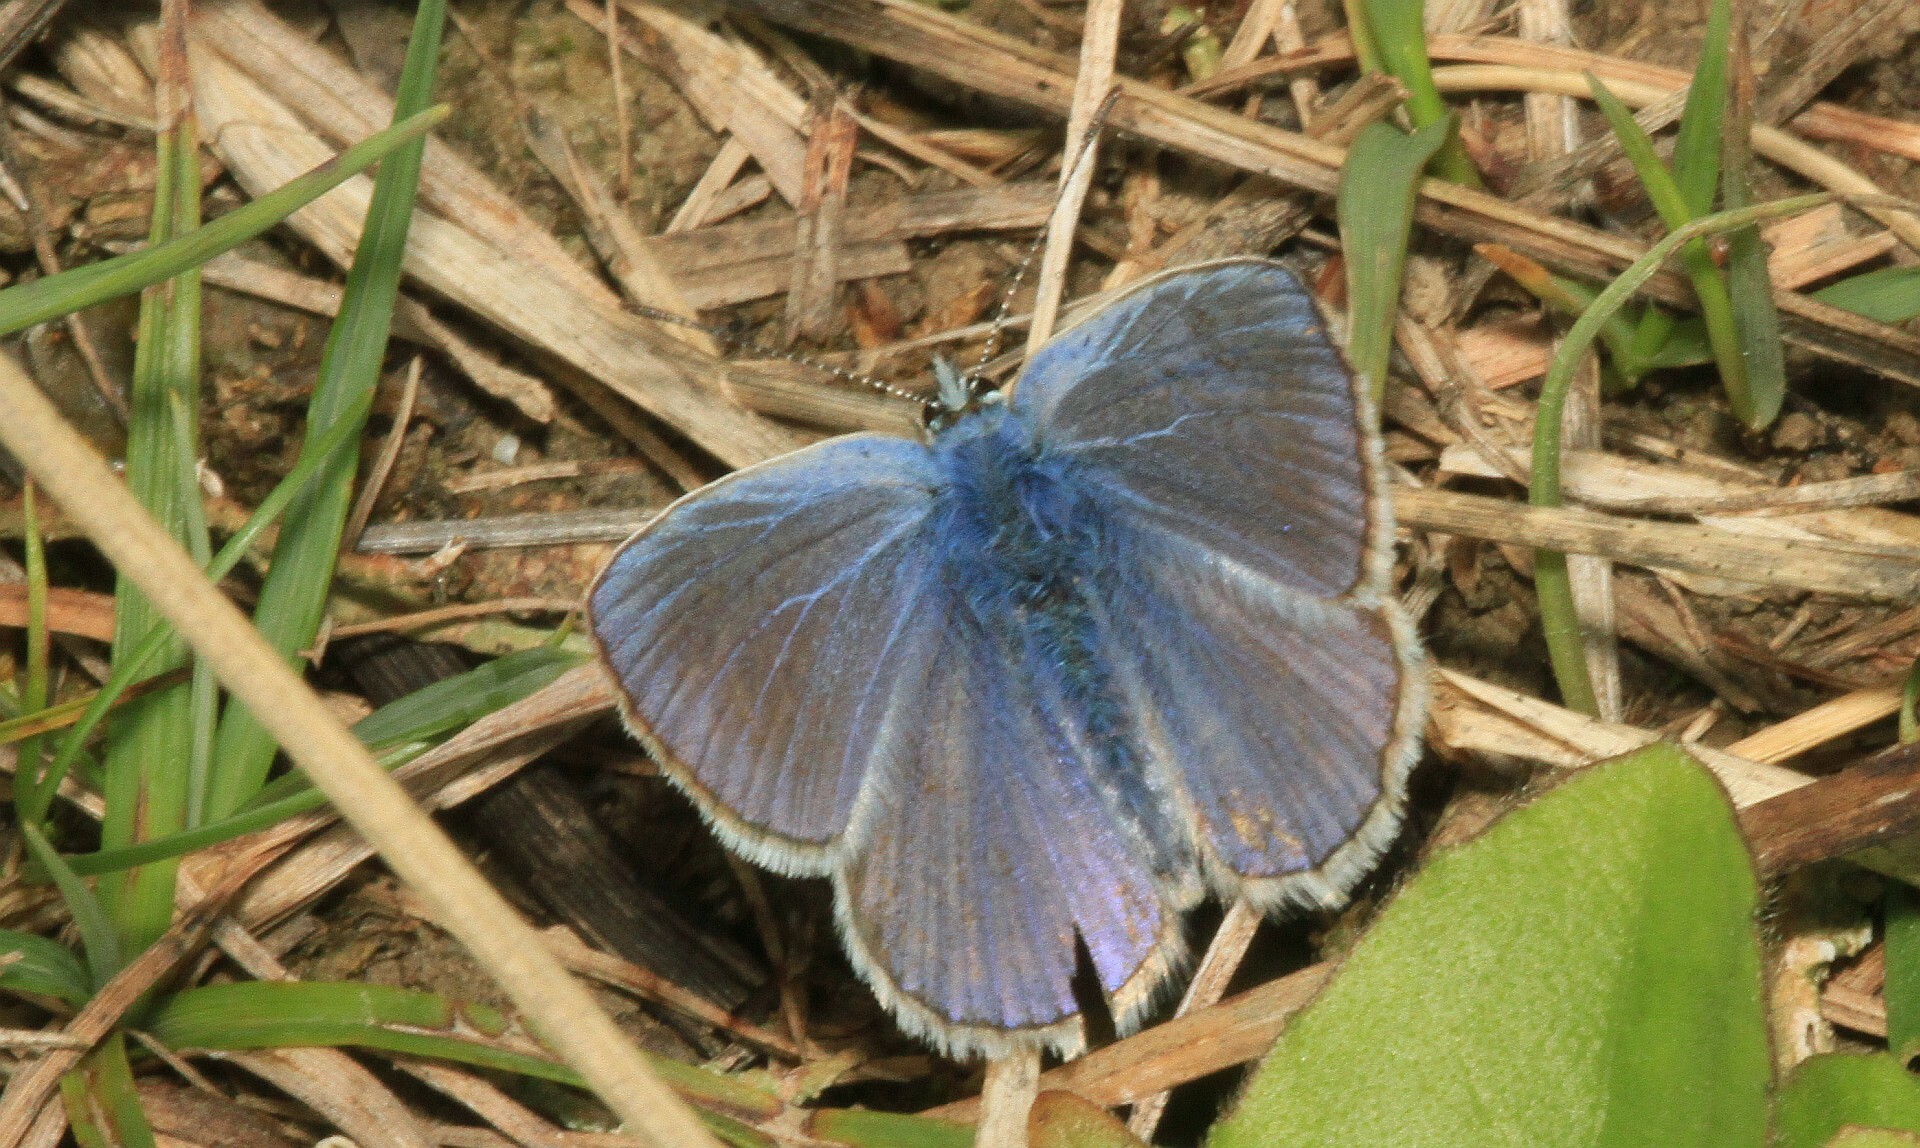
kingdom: Animalia
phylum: Arthropoda
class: Insecta
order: Lepidoptera
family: Lycaenidae
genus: Polyommatus
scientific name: Polyommatus icarus
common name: Common blue
